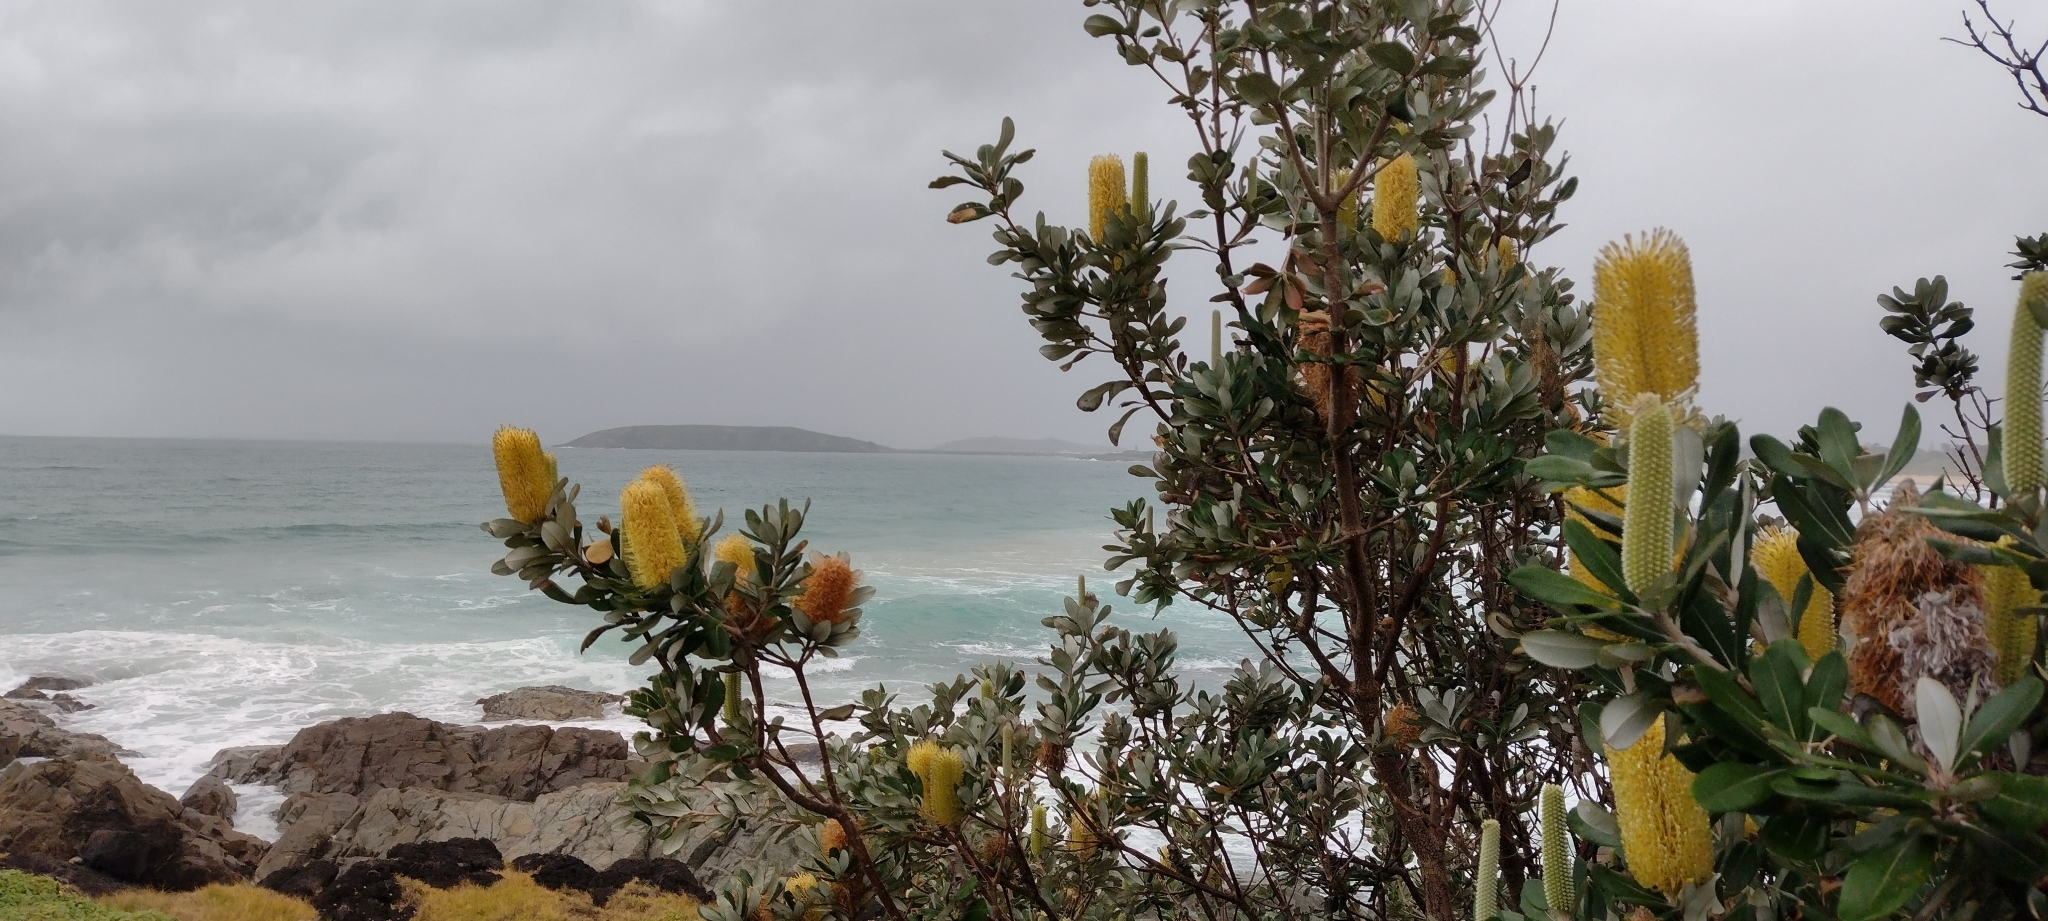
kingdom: Plantae
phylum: Tracheophyta
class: Magnoliopsida
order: Proteales
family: Proteaceae
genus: Banksia
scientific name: Banksia integrifolia
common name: White-honeysuckle
